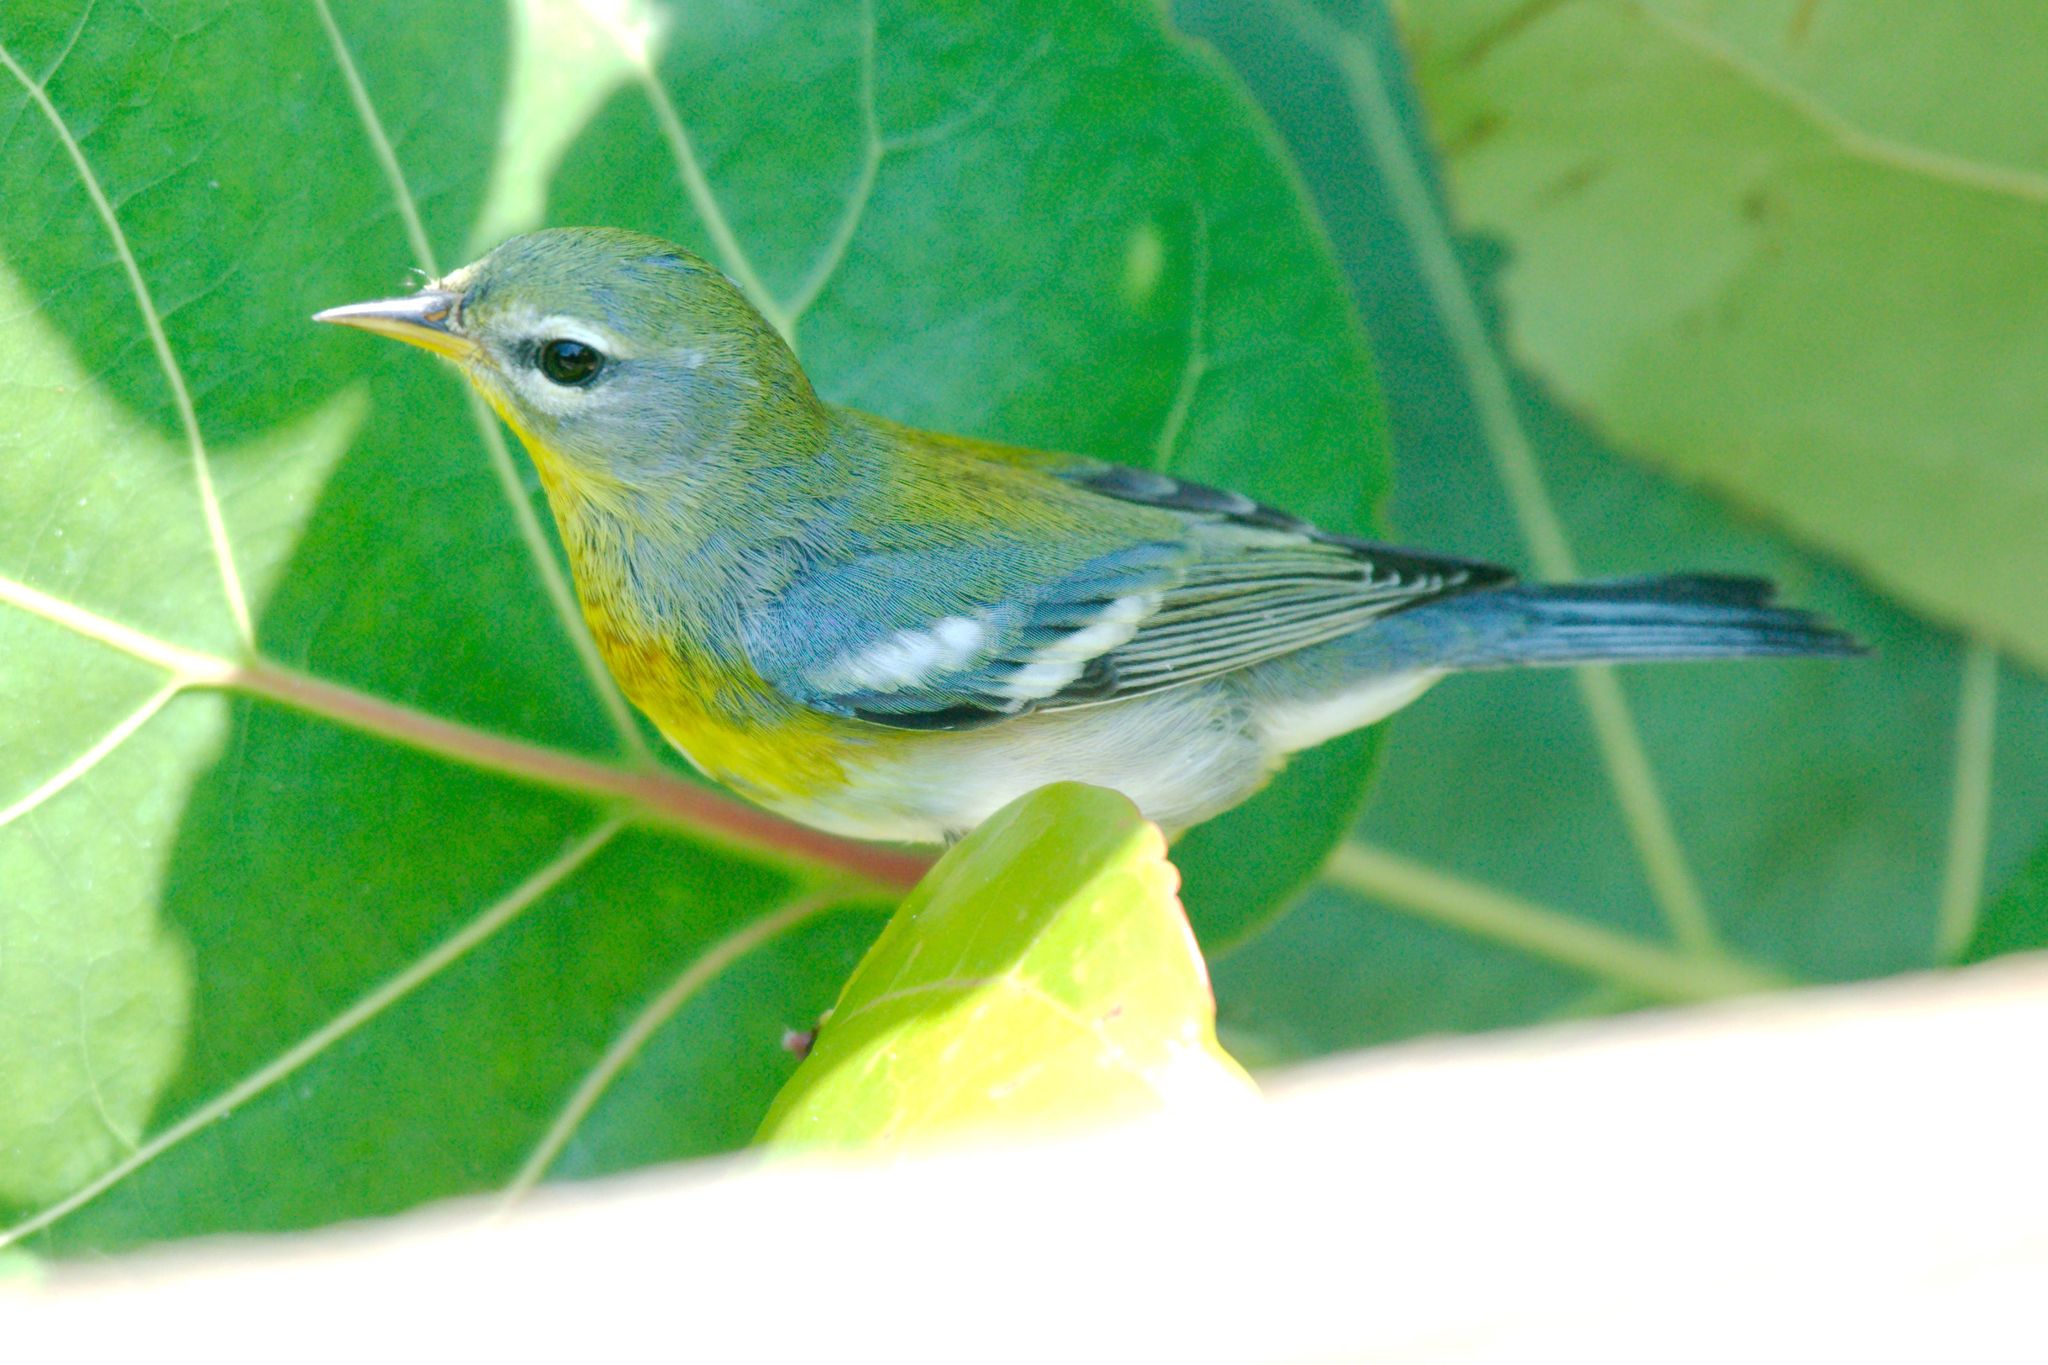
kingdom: Animalia
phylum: Chordata
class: Aves
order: Passeriformes
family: Parulidae
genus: Setophaga
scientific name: Setophaga americana
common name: Northern parula
